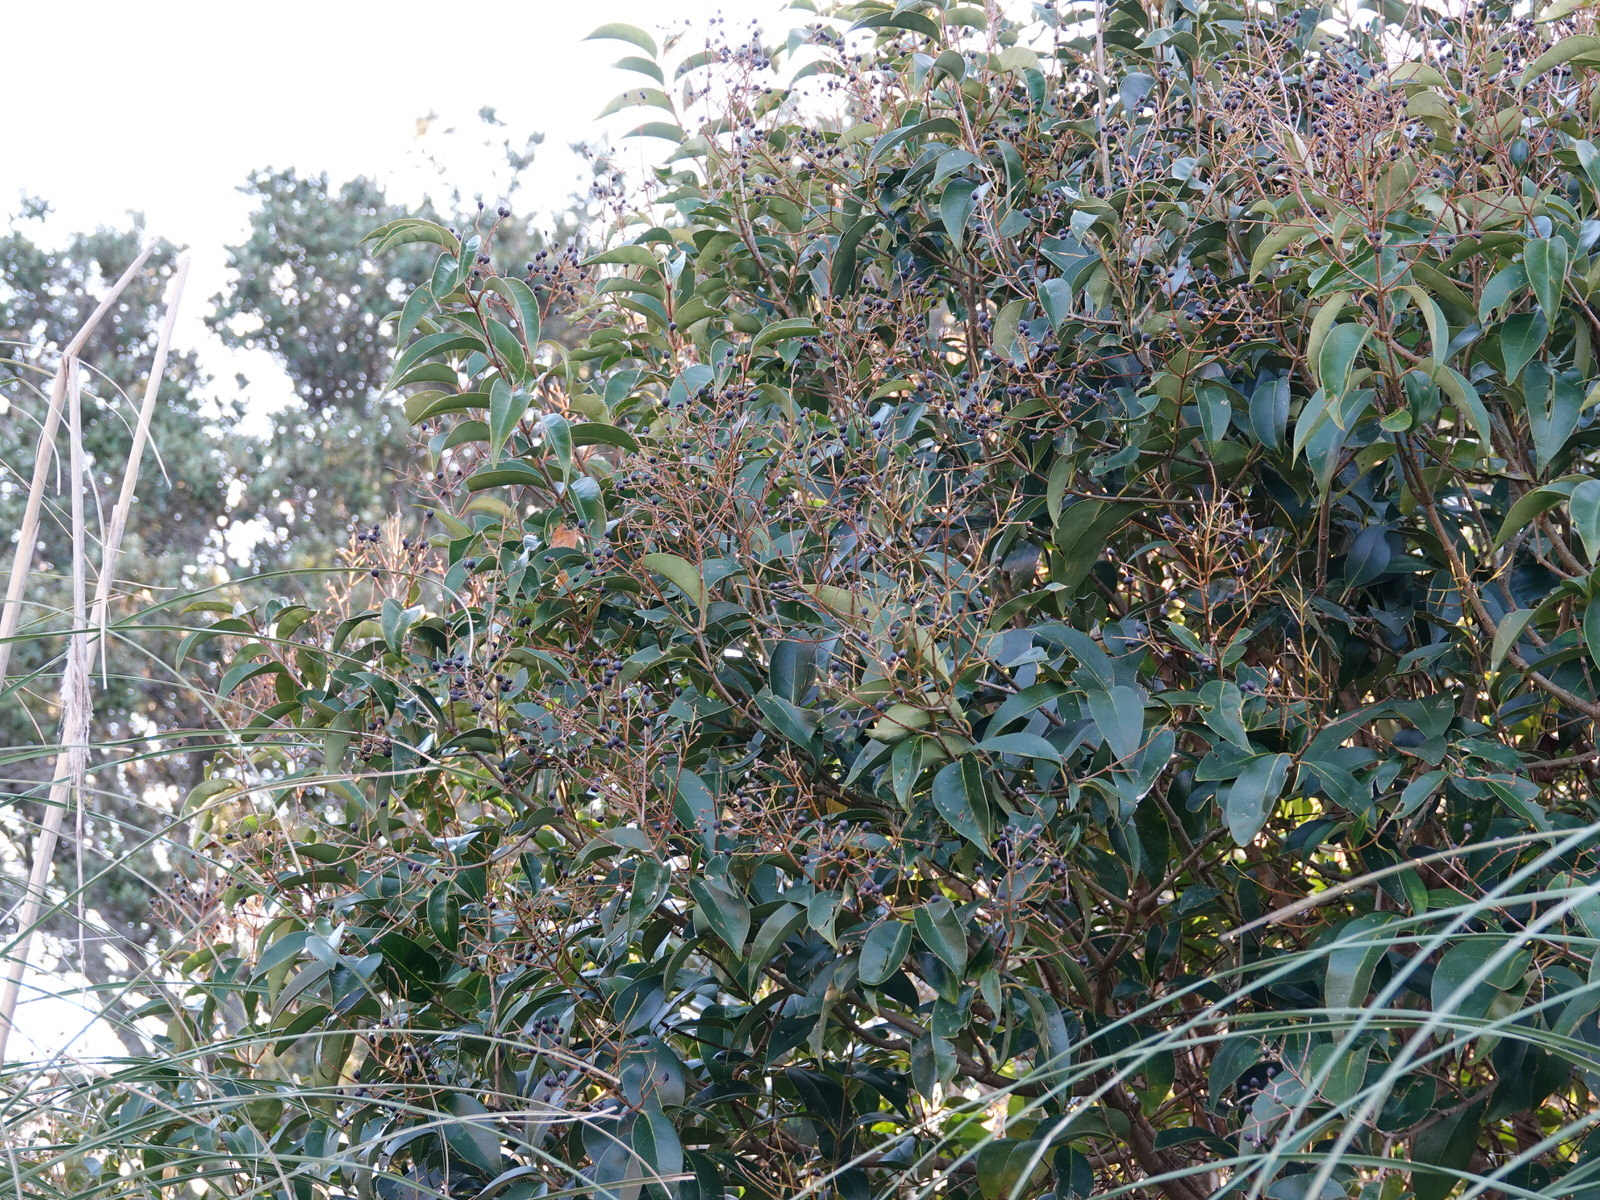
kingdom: Plantae
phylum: Tracheophyta
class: Magnoliopsida
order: Lamiales
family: Oleaceae
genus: Ligustrum
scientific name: Ligustrum lucidum
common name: Glossy privet
